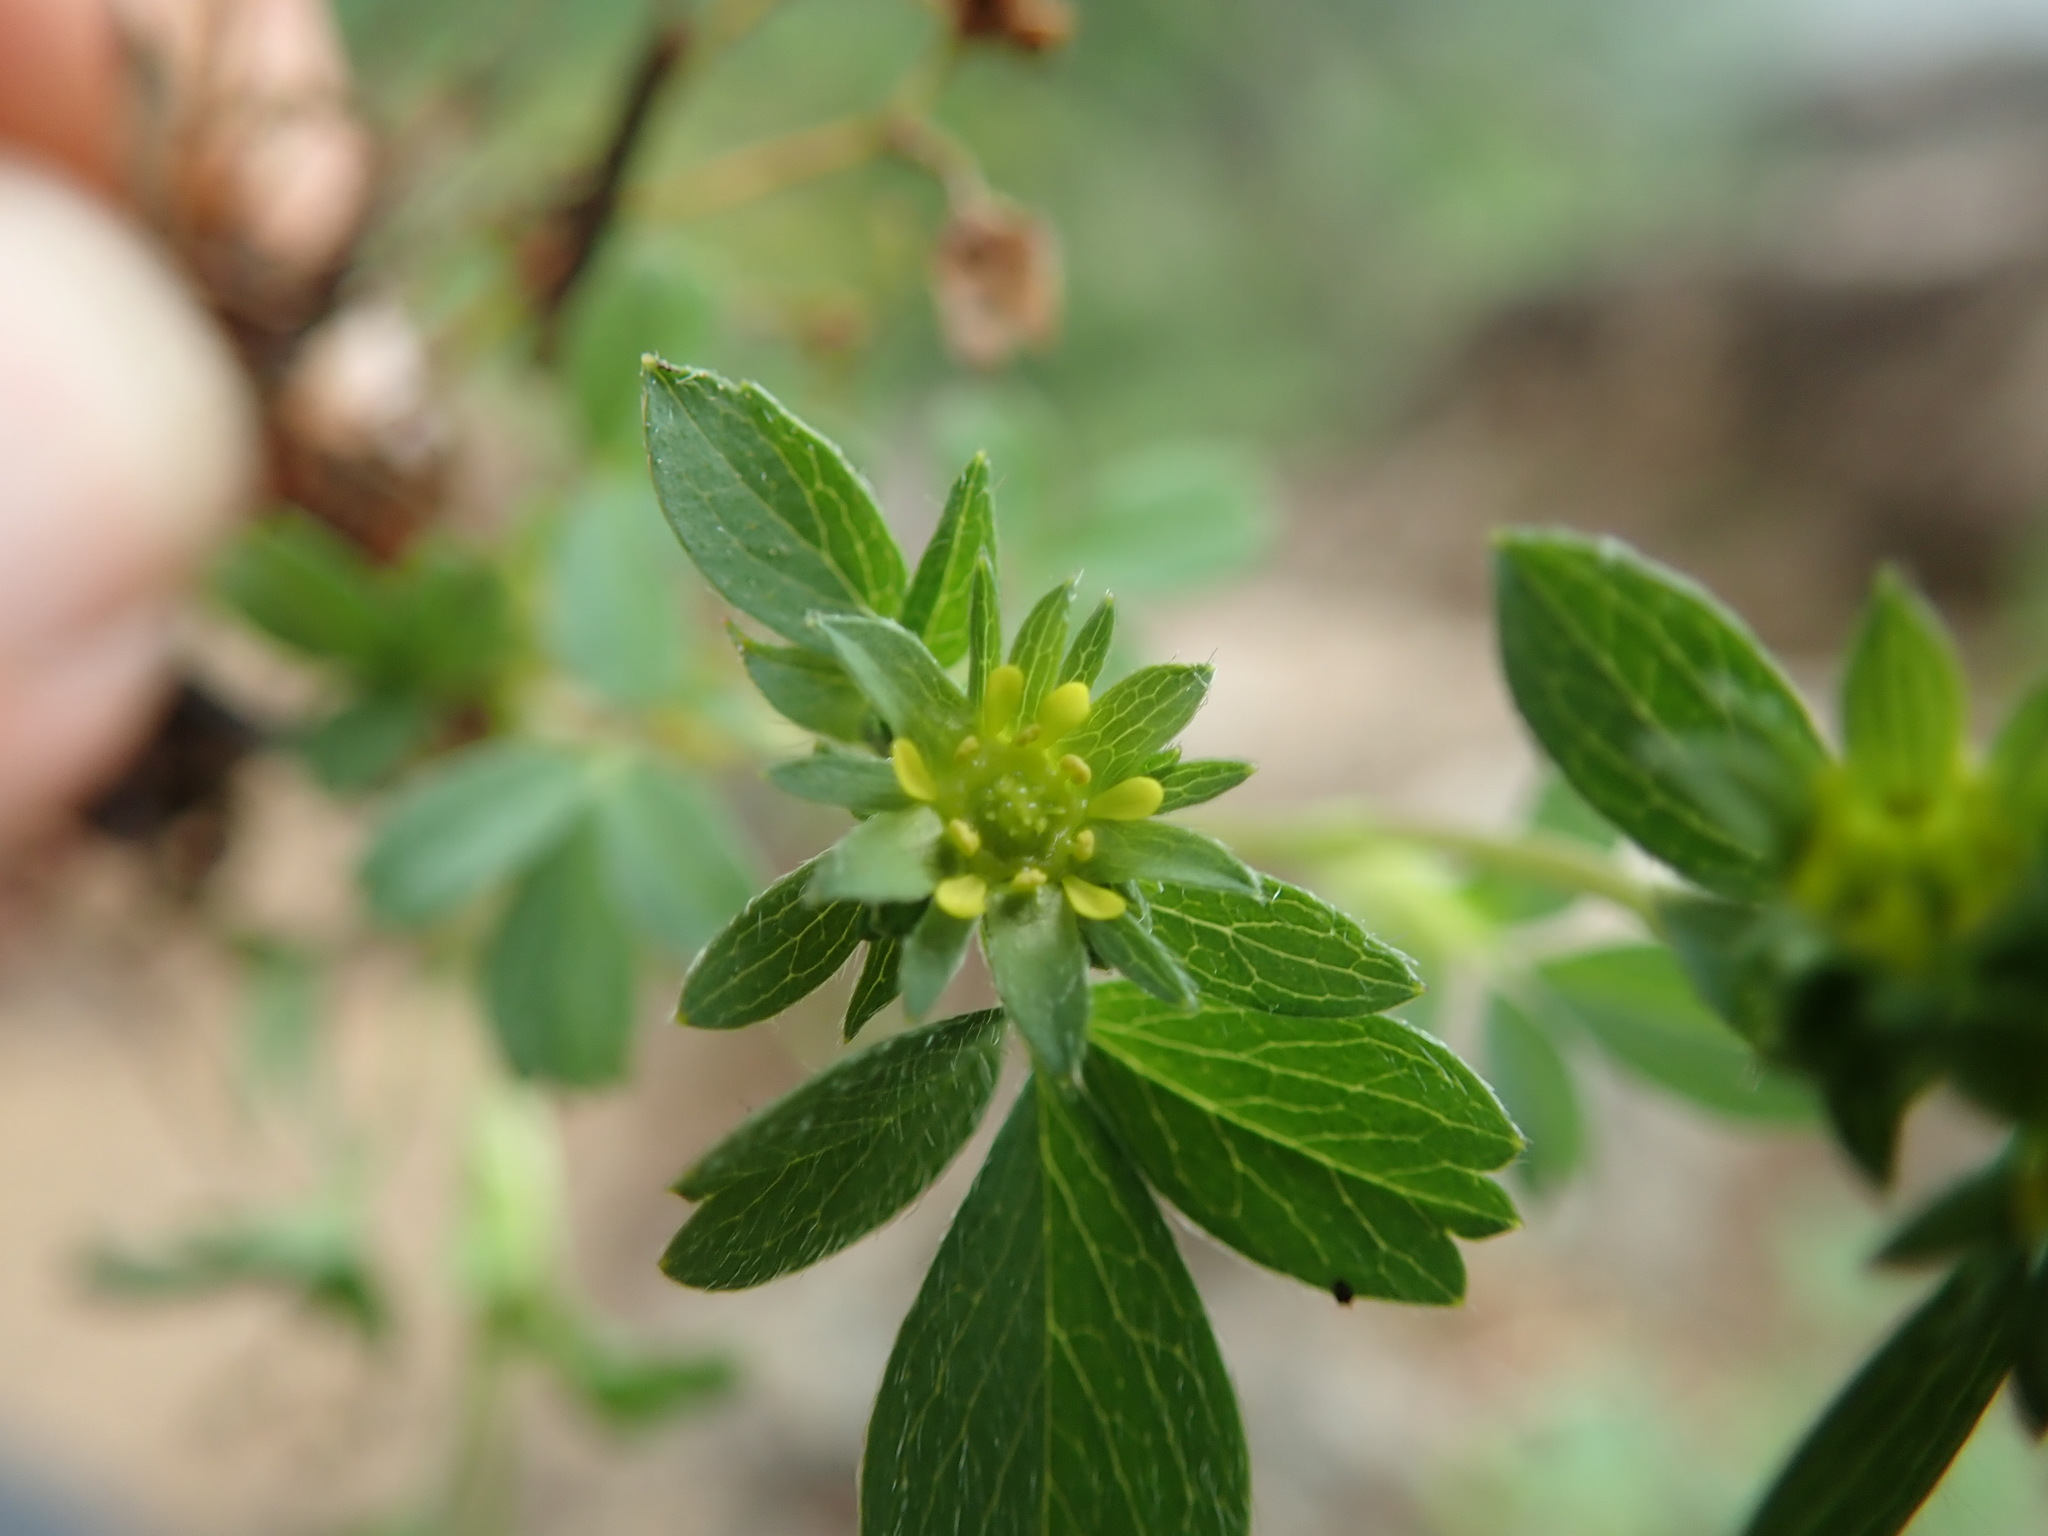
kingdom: Plantae
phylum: Tracheophyta
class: Magnoliopsida
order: Rosales
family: Rosaceae
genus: Sibbaldia
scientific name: Sibbaldia procumbens
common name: Creeping sibbaldia
